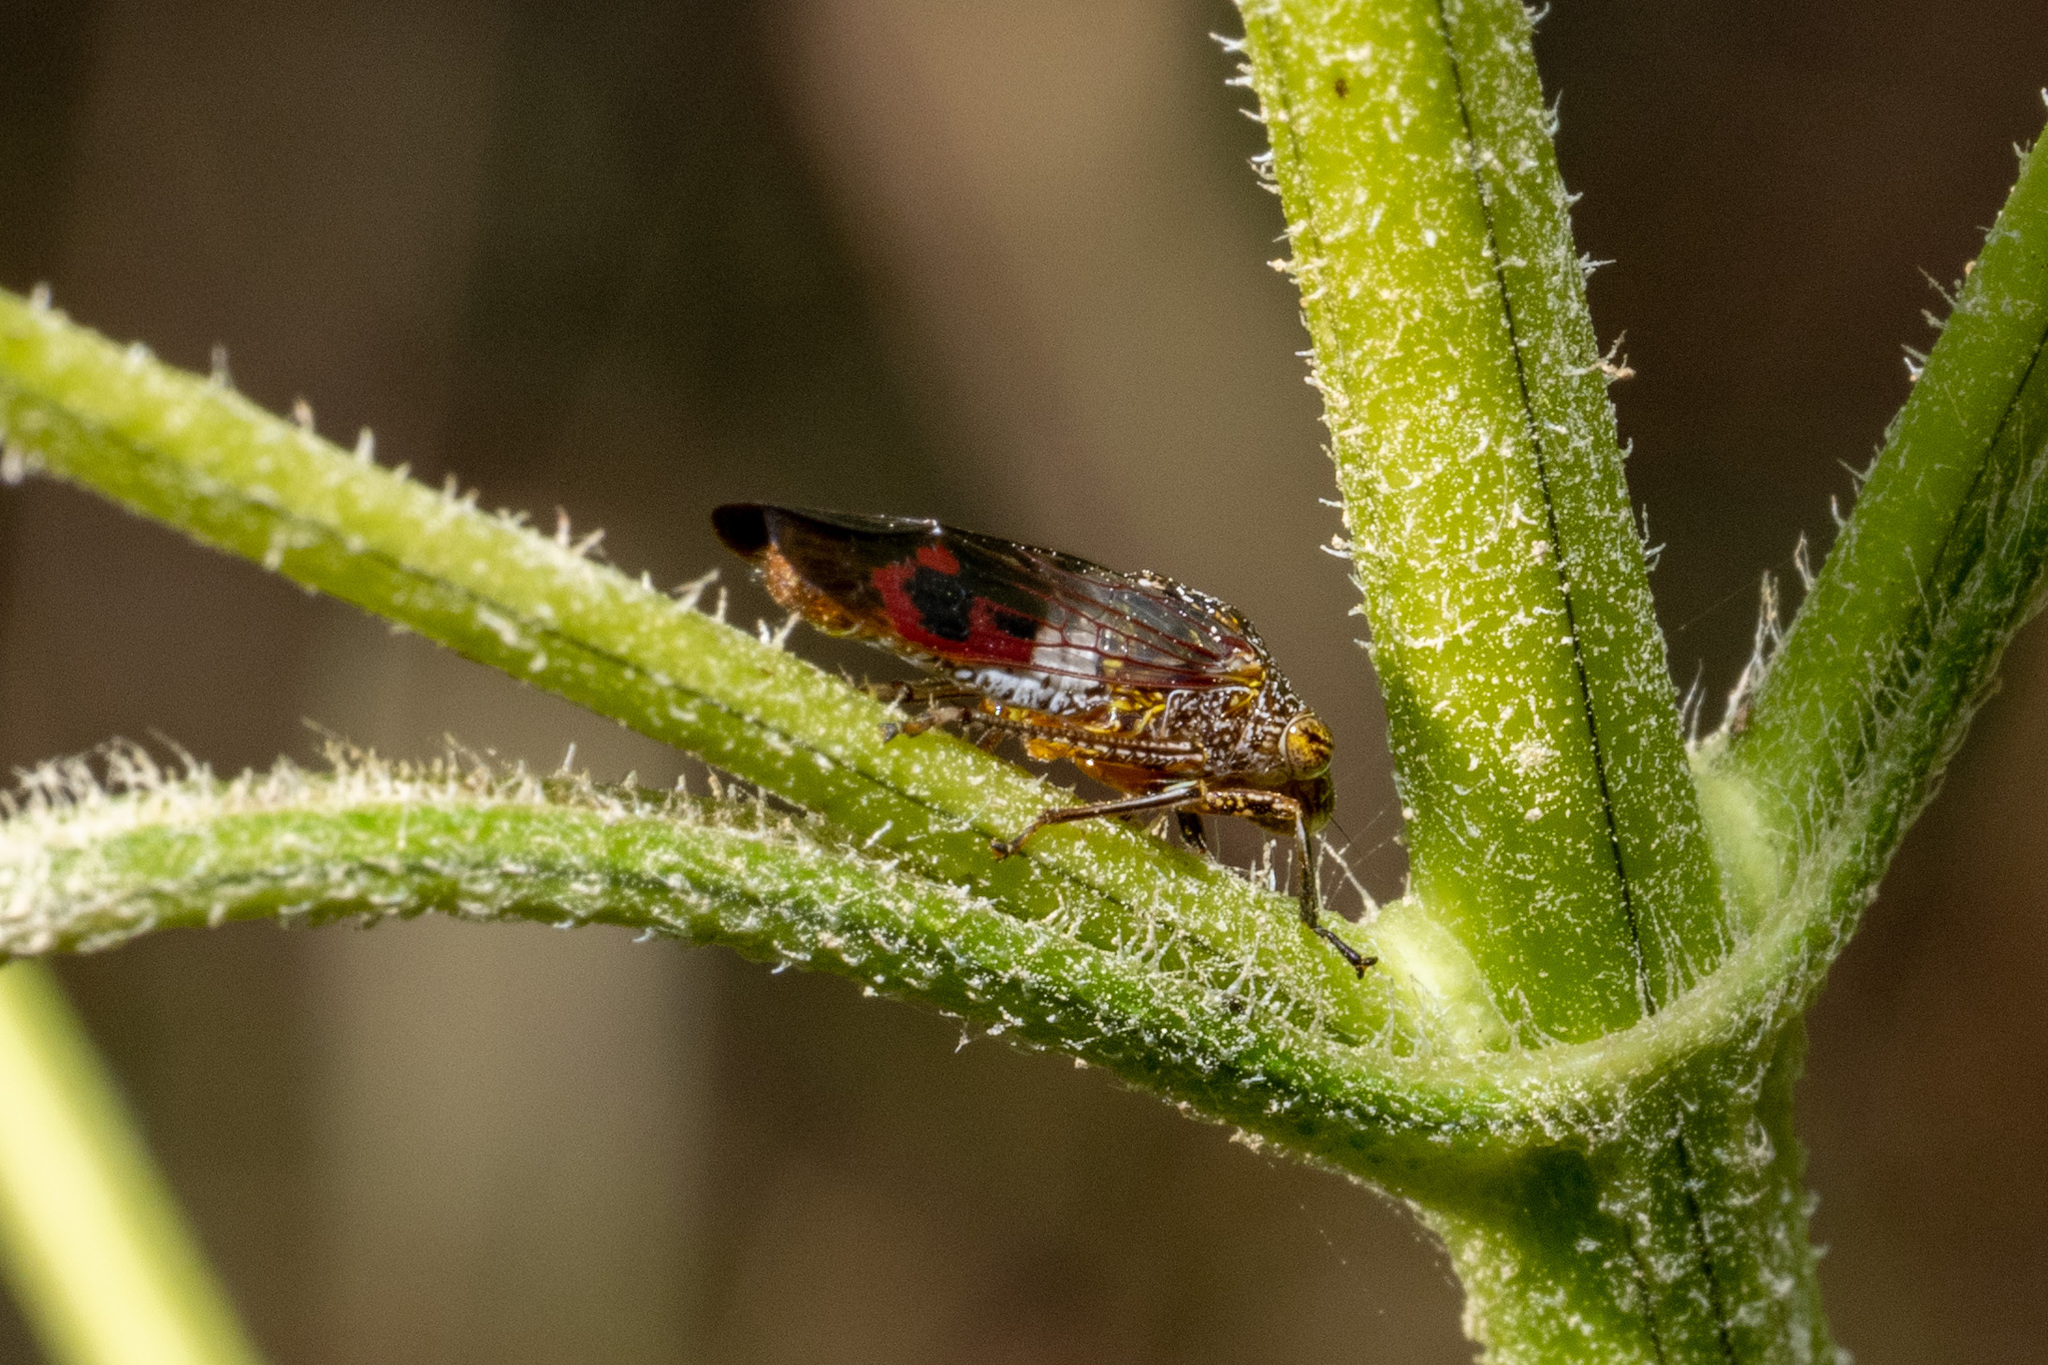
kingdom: Animalia
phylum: Arthropoda
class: Insecta
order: Hemiptera
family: Cicadellidae
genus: Homalodisca
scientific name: Homalodisca vitripennis
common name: Glassy-winged sharpshooter
